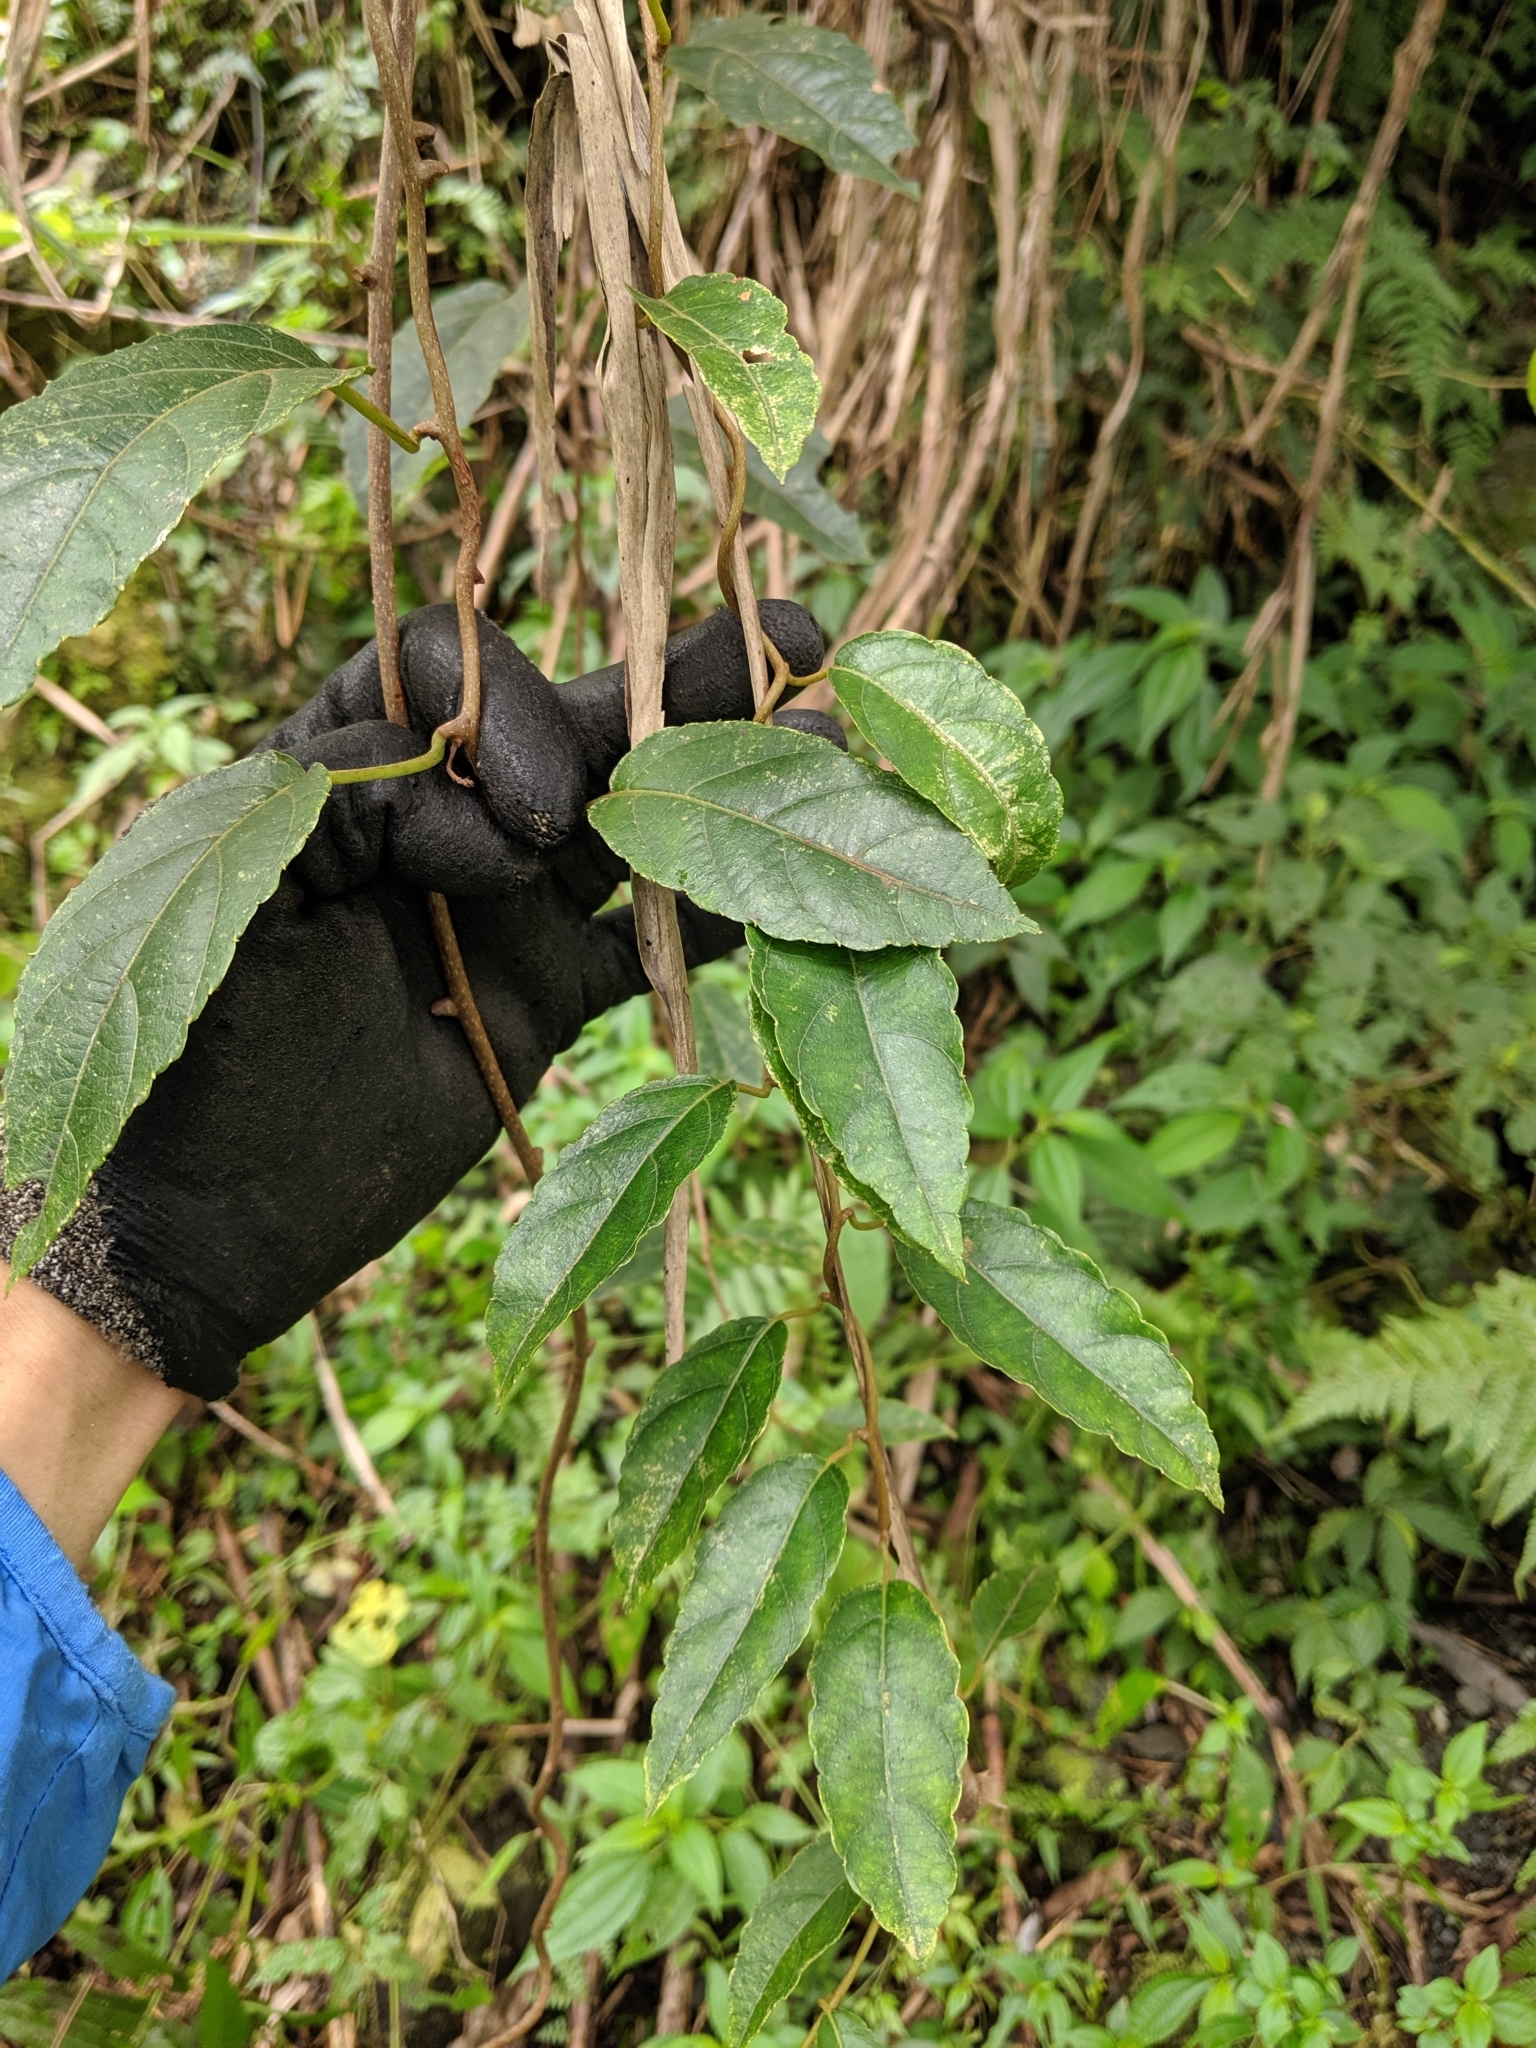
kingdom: Plantae
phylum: Tracheophyta
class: Magnoliopsida
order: Ericales
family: Actinidiaceae
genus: Actinidia
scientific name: Actinidia rufa
